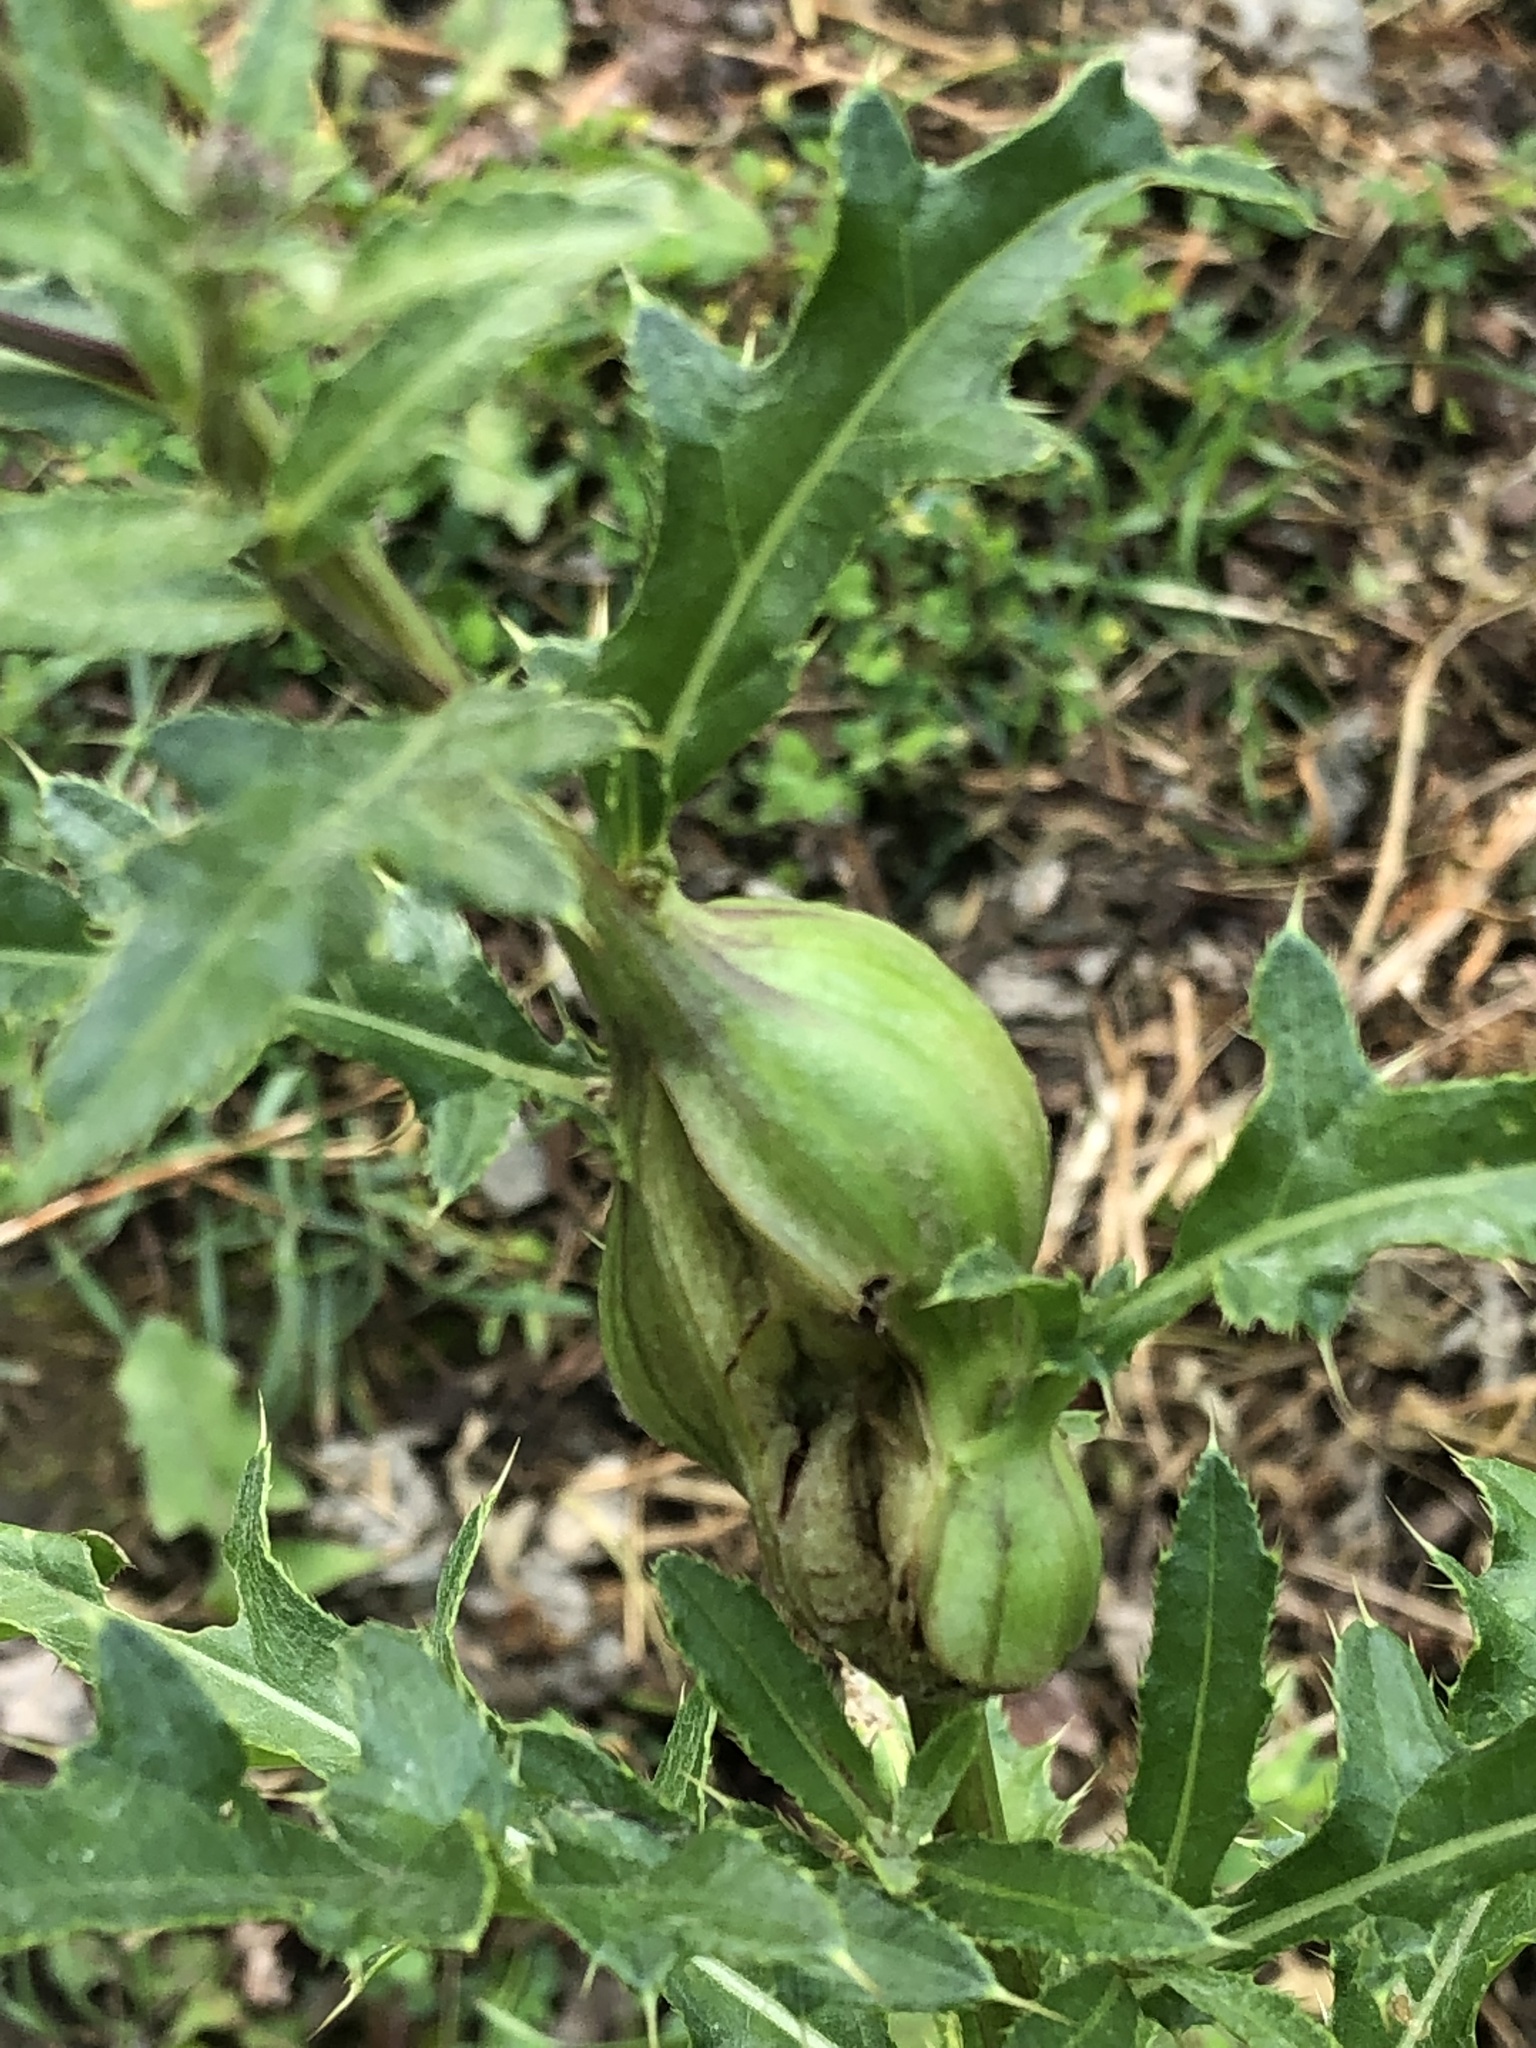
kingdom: Animalia
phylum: Arthropoda
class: Insecta
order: Diptera
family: Tephritidae
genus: Urophora
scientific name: Urophora cardui
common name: Fruit fly
